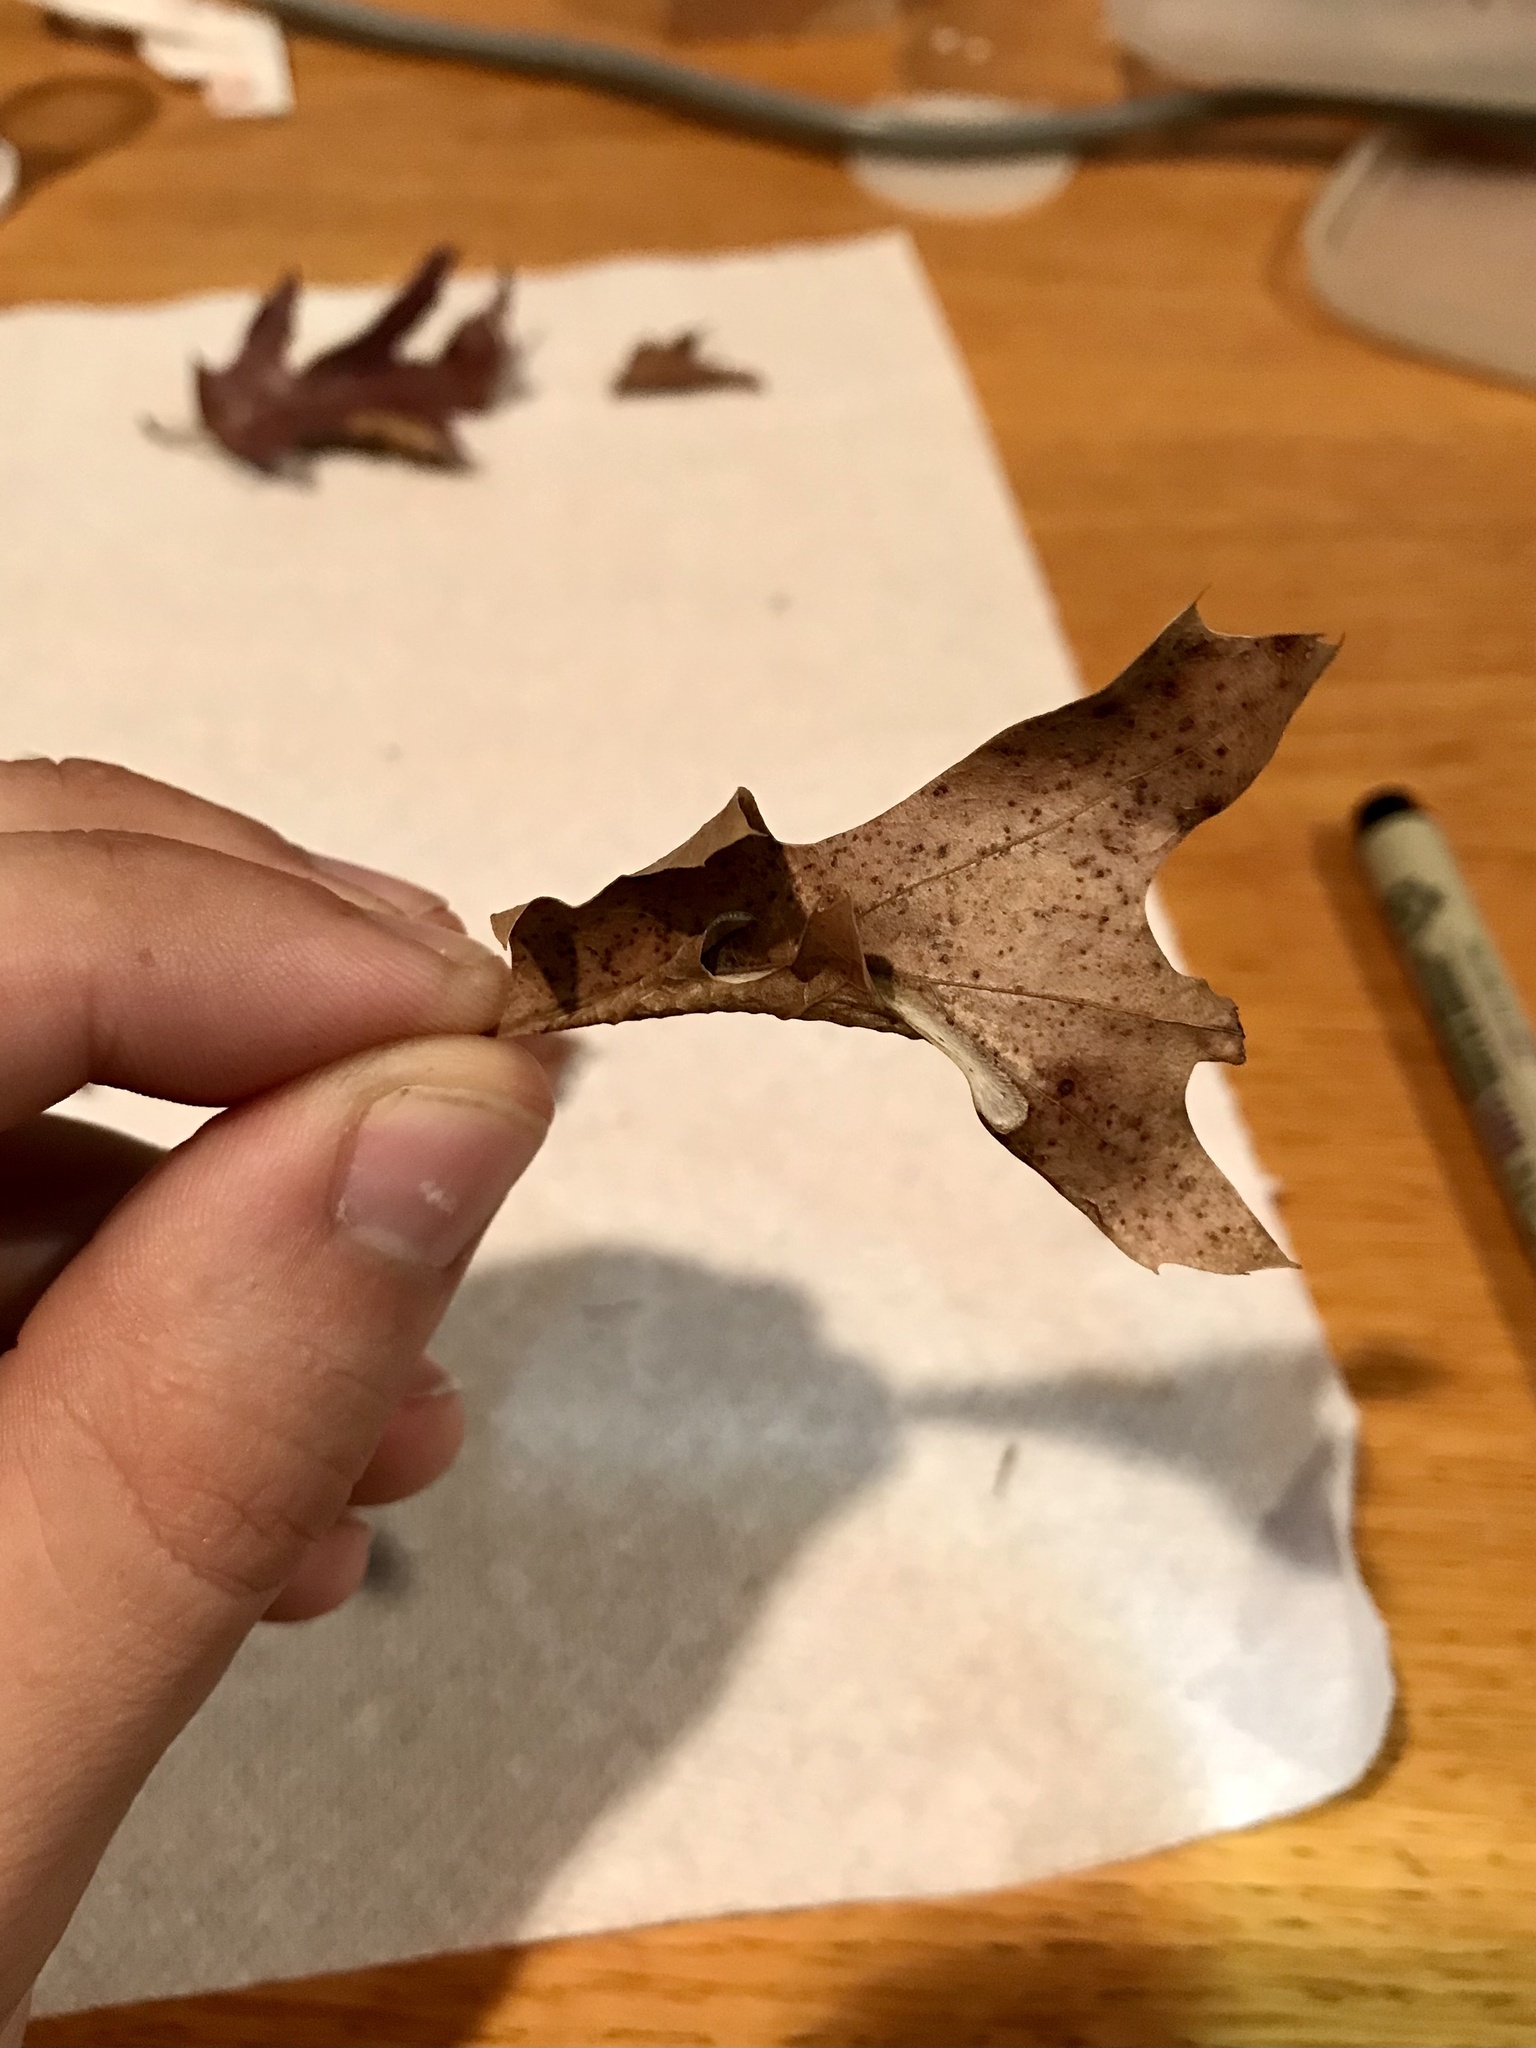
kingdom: Animalia
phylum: Arthropoda
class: Insecta
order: Lepidoptera
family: Tischeriidae
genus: Coptotriche
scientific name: Coptotriche citrinipennella
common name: The golden sweeper
